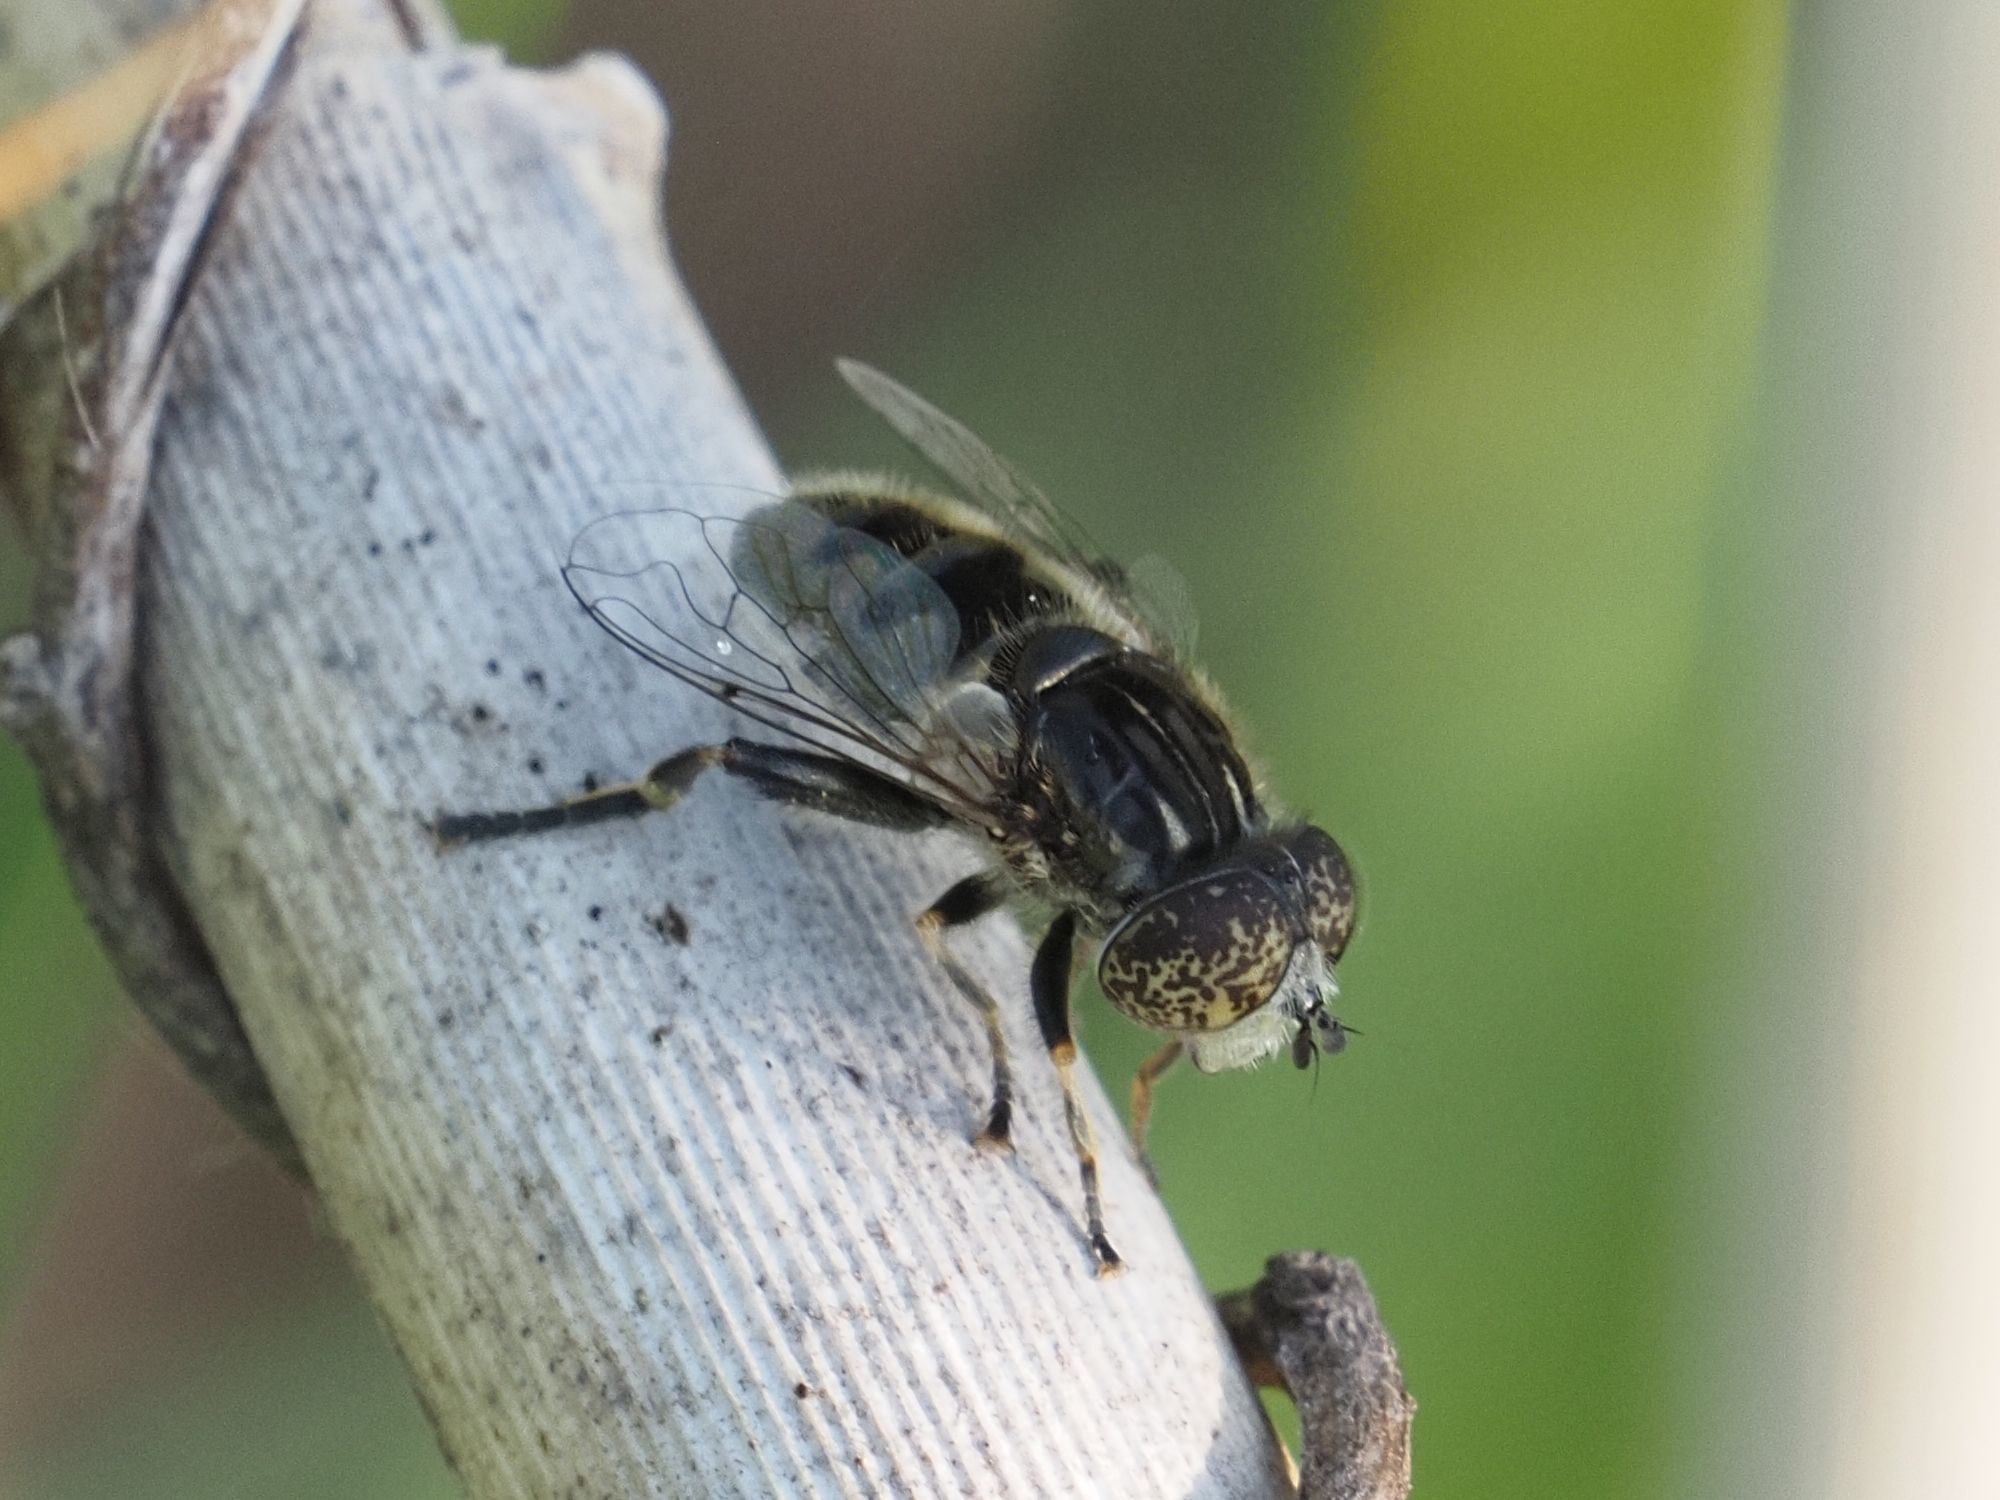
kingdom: Animalia
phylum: Arthropoda
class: Insecta
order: Diptera
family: Syrphidae
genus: Eristalinus
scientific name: Eristalinus sepulchralis
